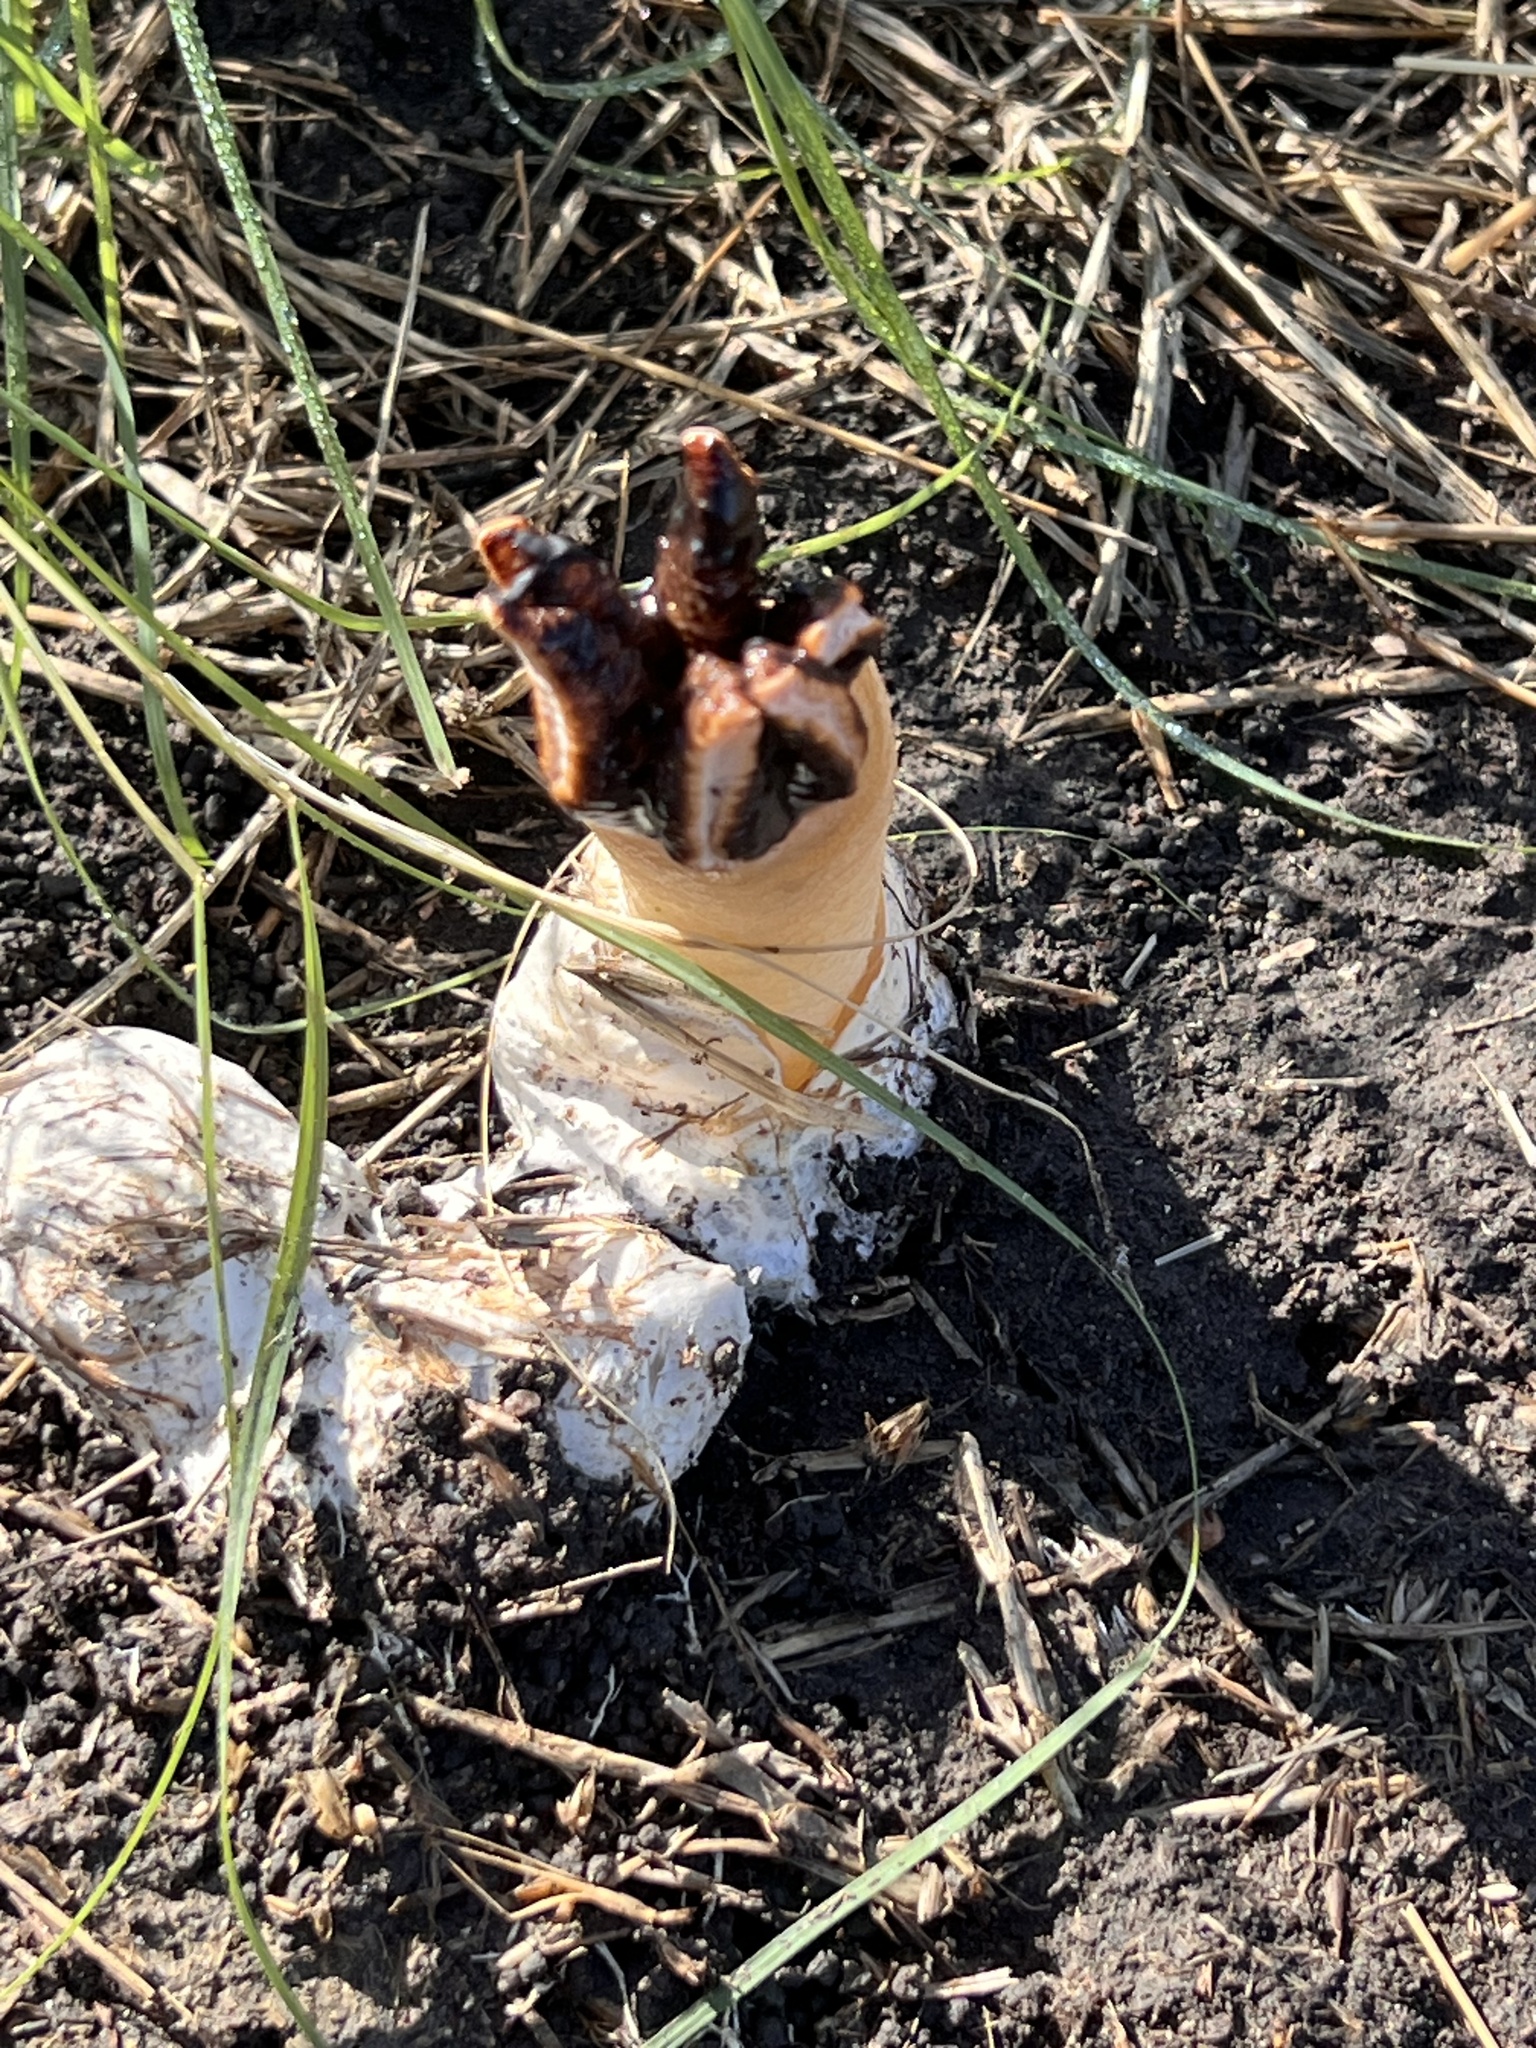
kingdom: Fungi
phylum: Basidiomycota
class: Agaricomycetes
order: Phallales
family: Phallaceae
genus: Lysurus
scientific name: Lysurus cruciatus
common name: Lizard's claw
